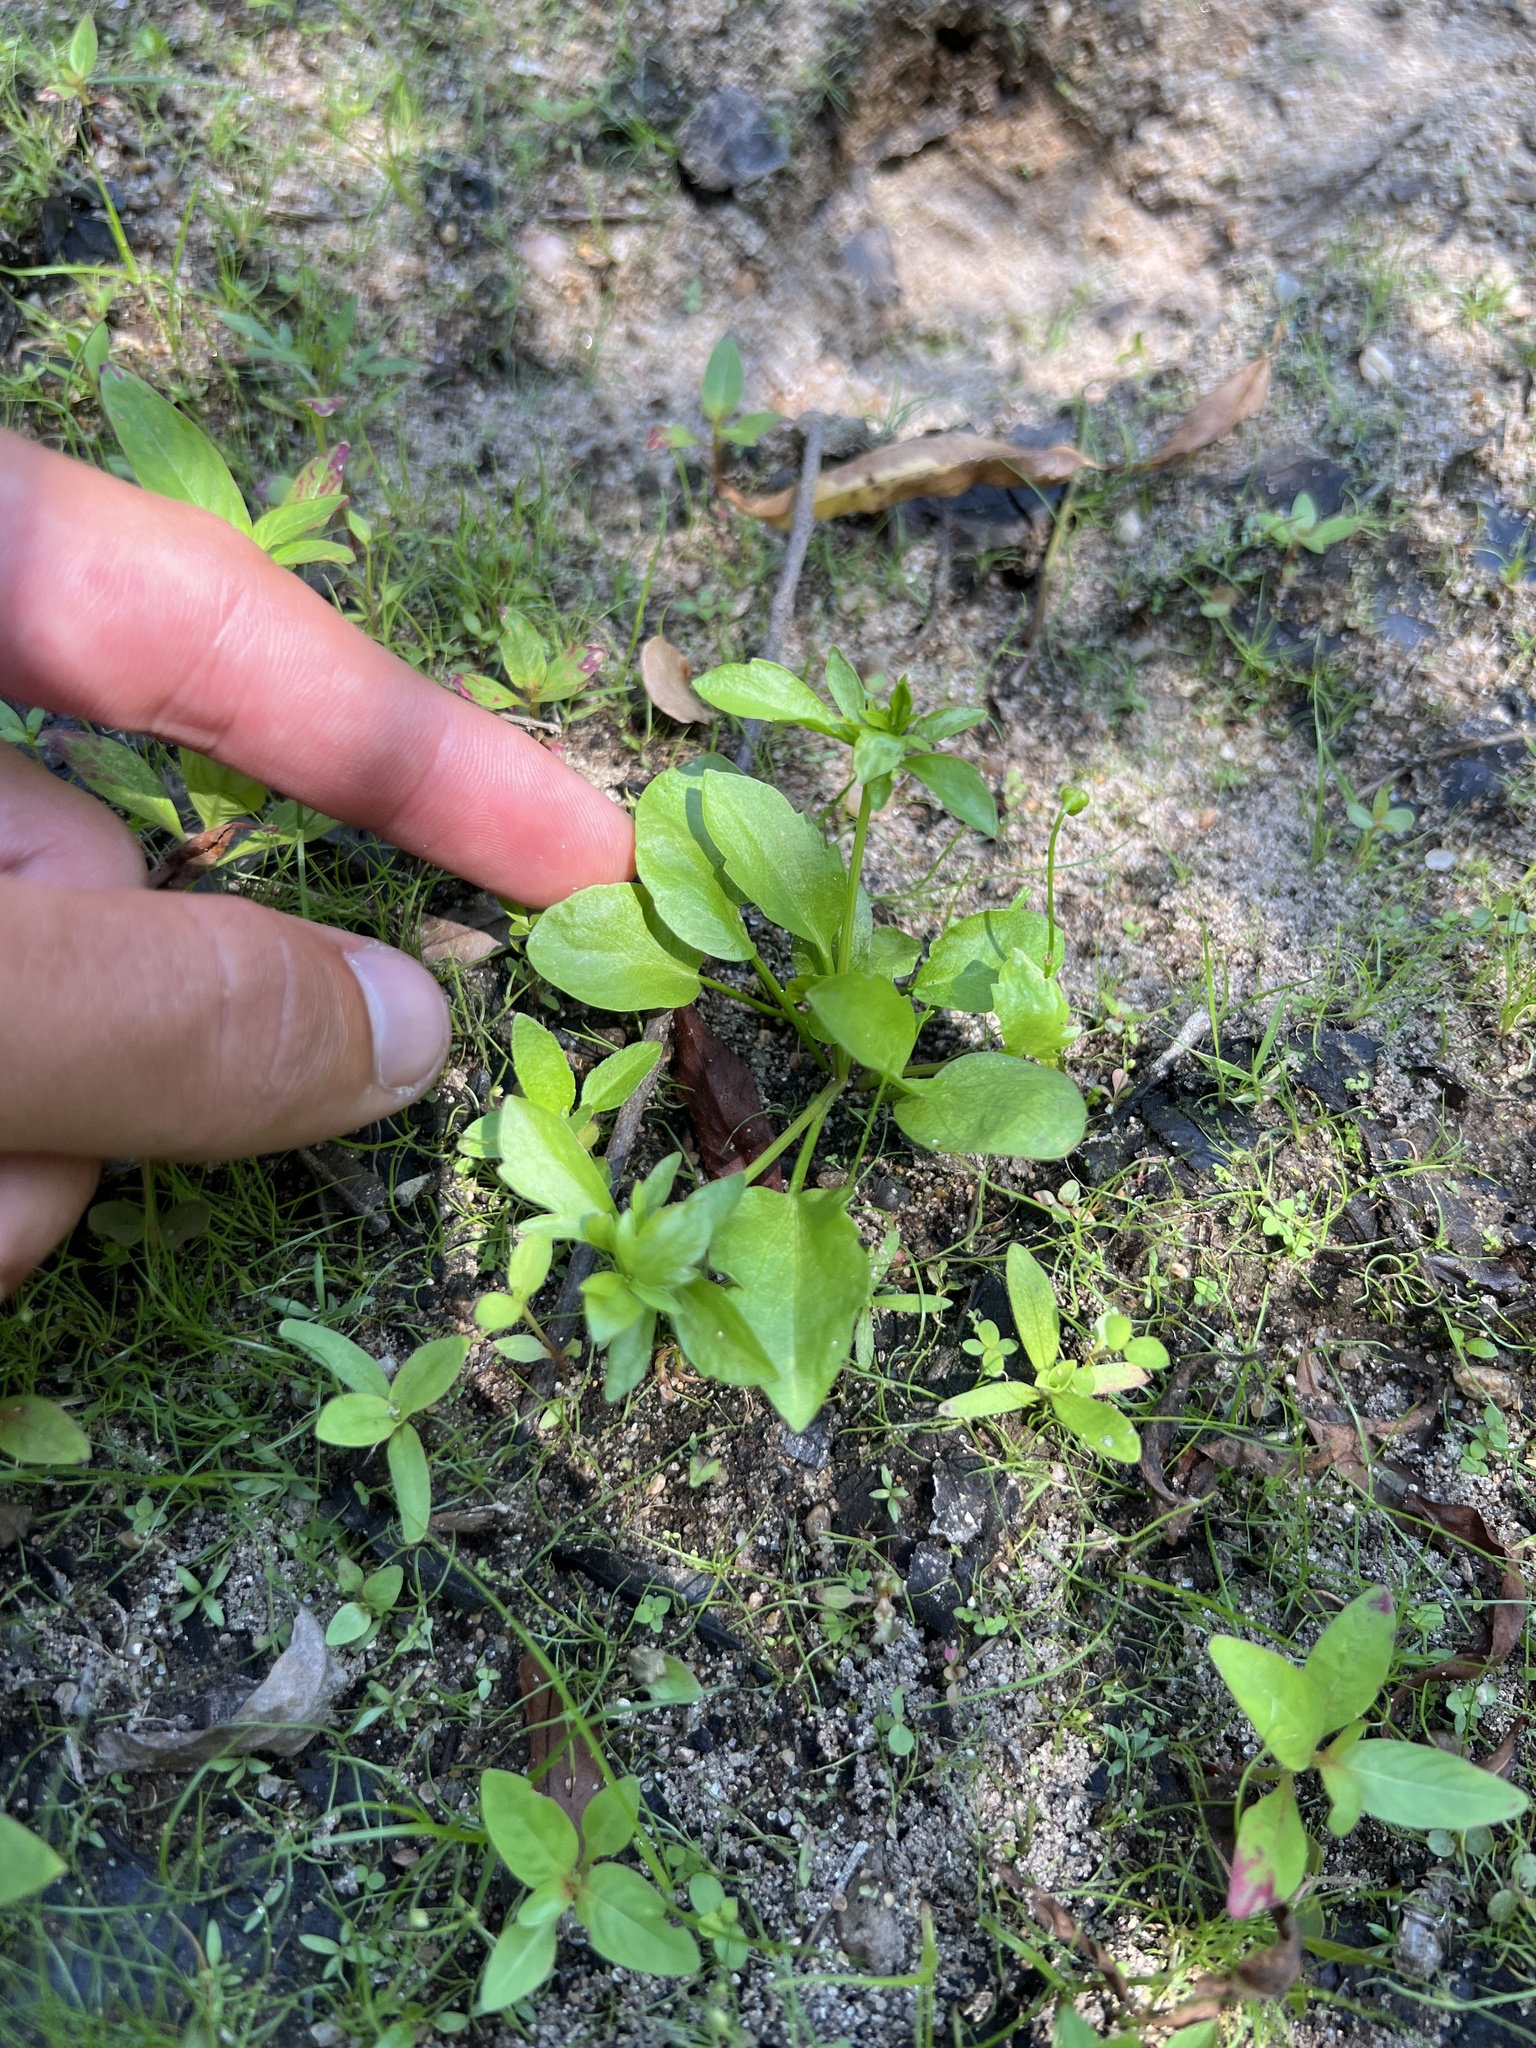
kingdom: Plantae
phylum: Tracheophyta
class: Magnoliopsida
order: Apiales
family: Apiaceae
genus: Eryngium
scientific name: Eryngium prostratum
